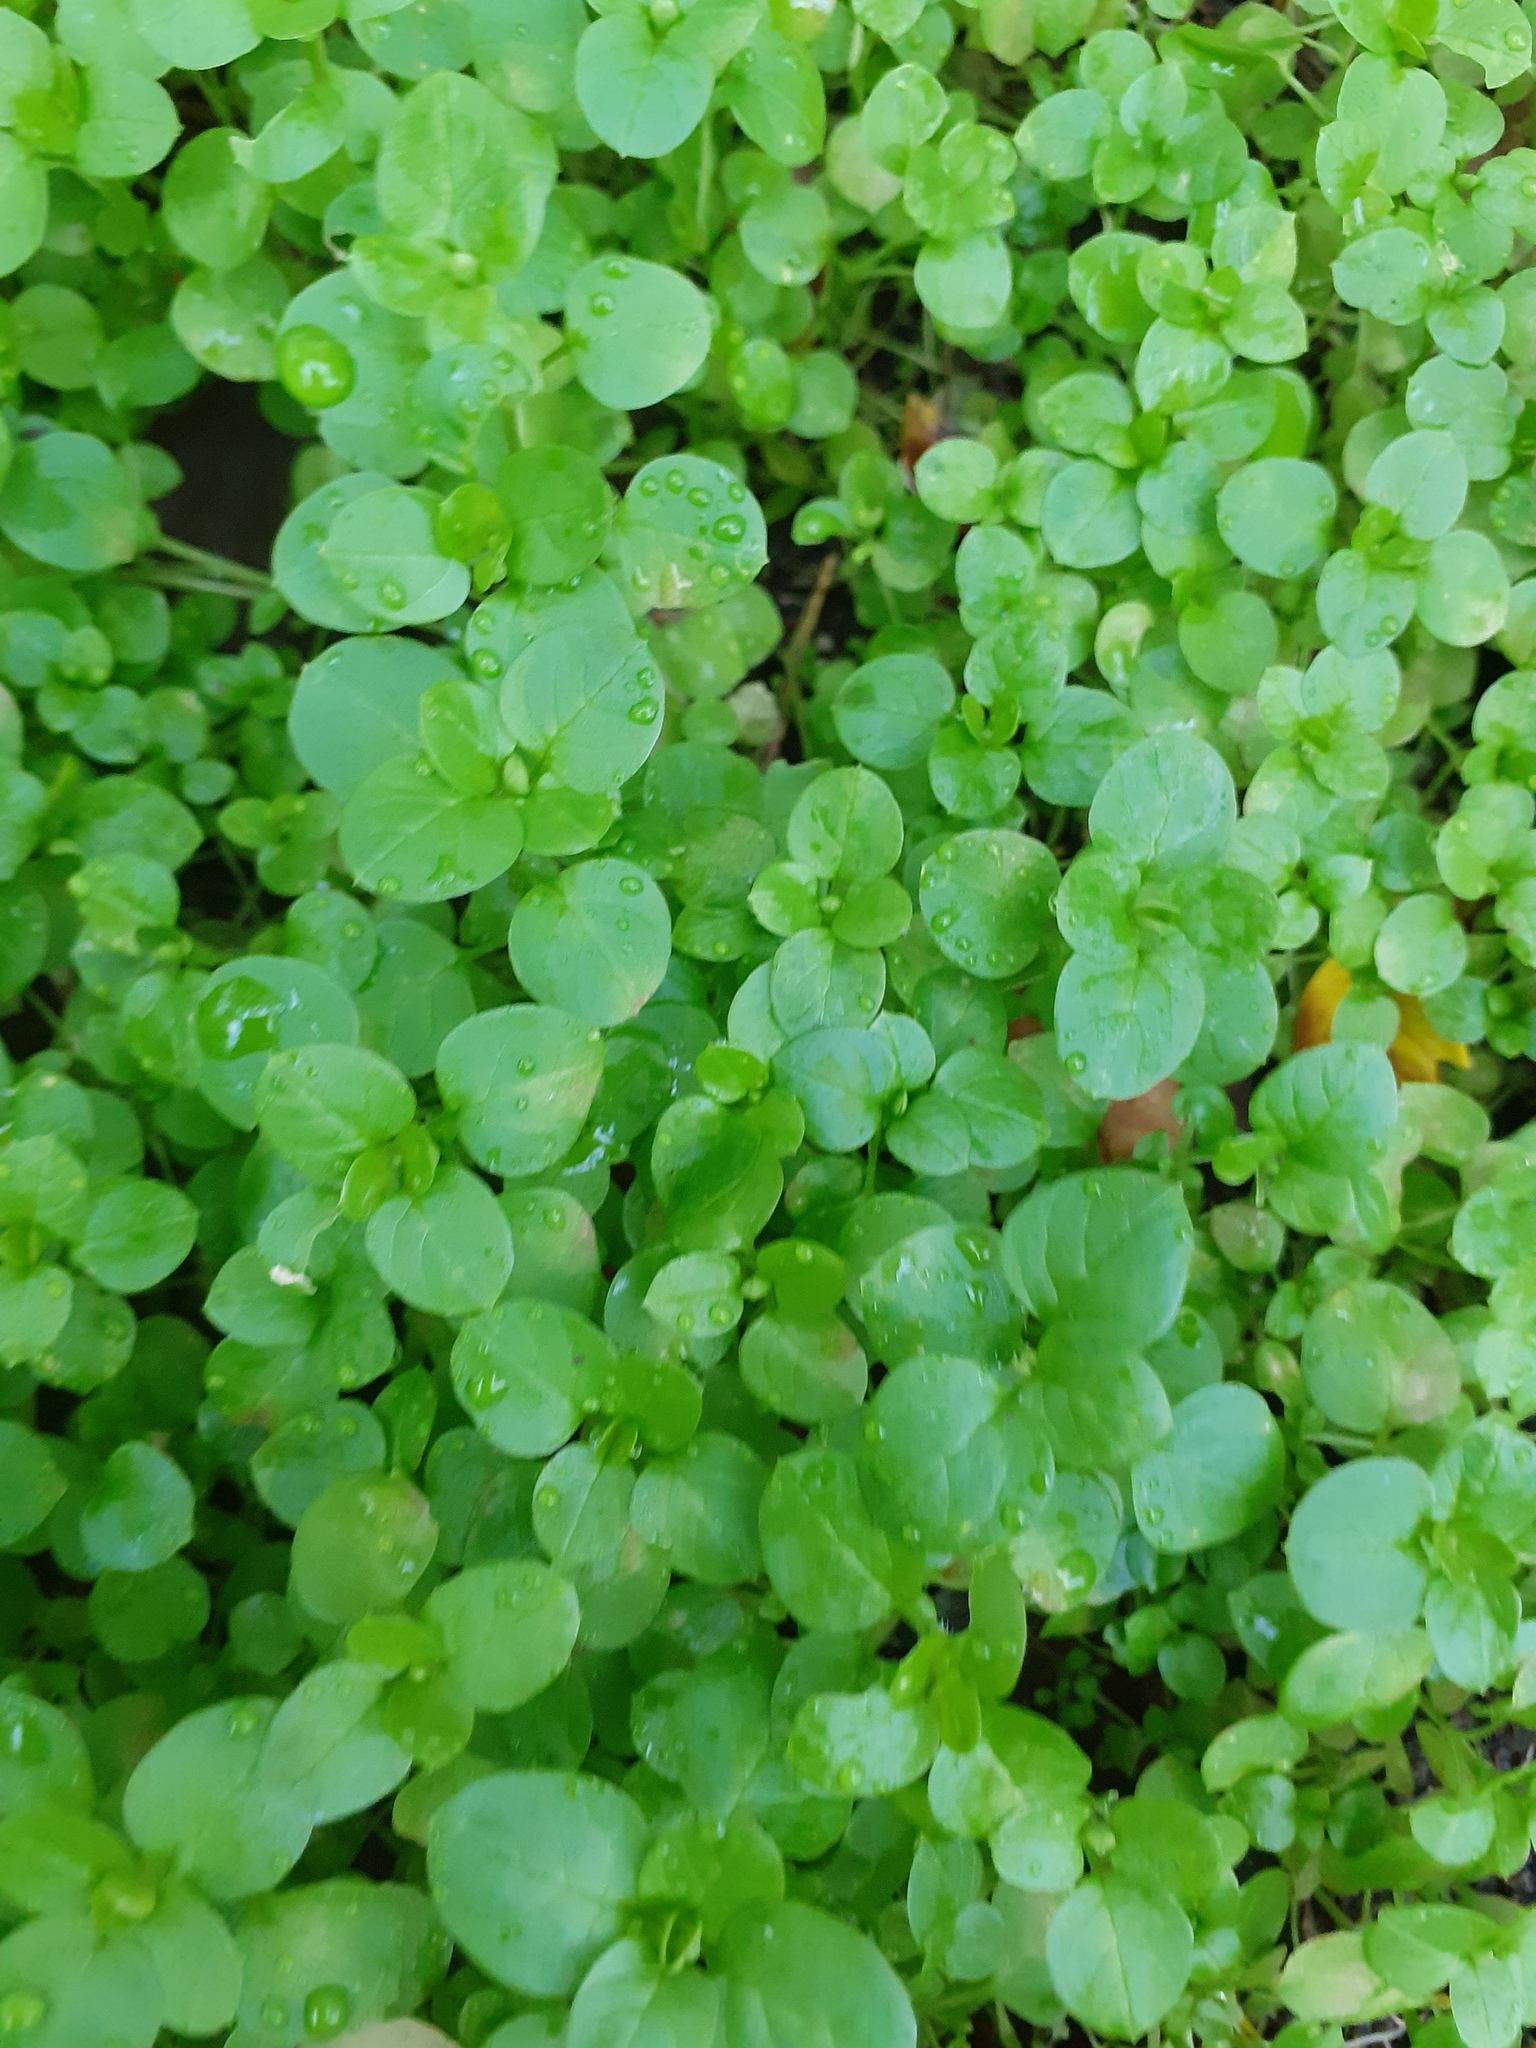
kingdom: Plantae
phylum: Tracheophyta
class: Magnoliopsida
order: Caryophyllales
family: Caryophyllaceae
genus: Stellaria
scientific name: Stellaria media
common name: Common chickweed
